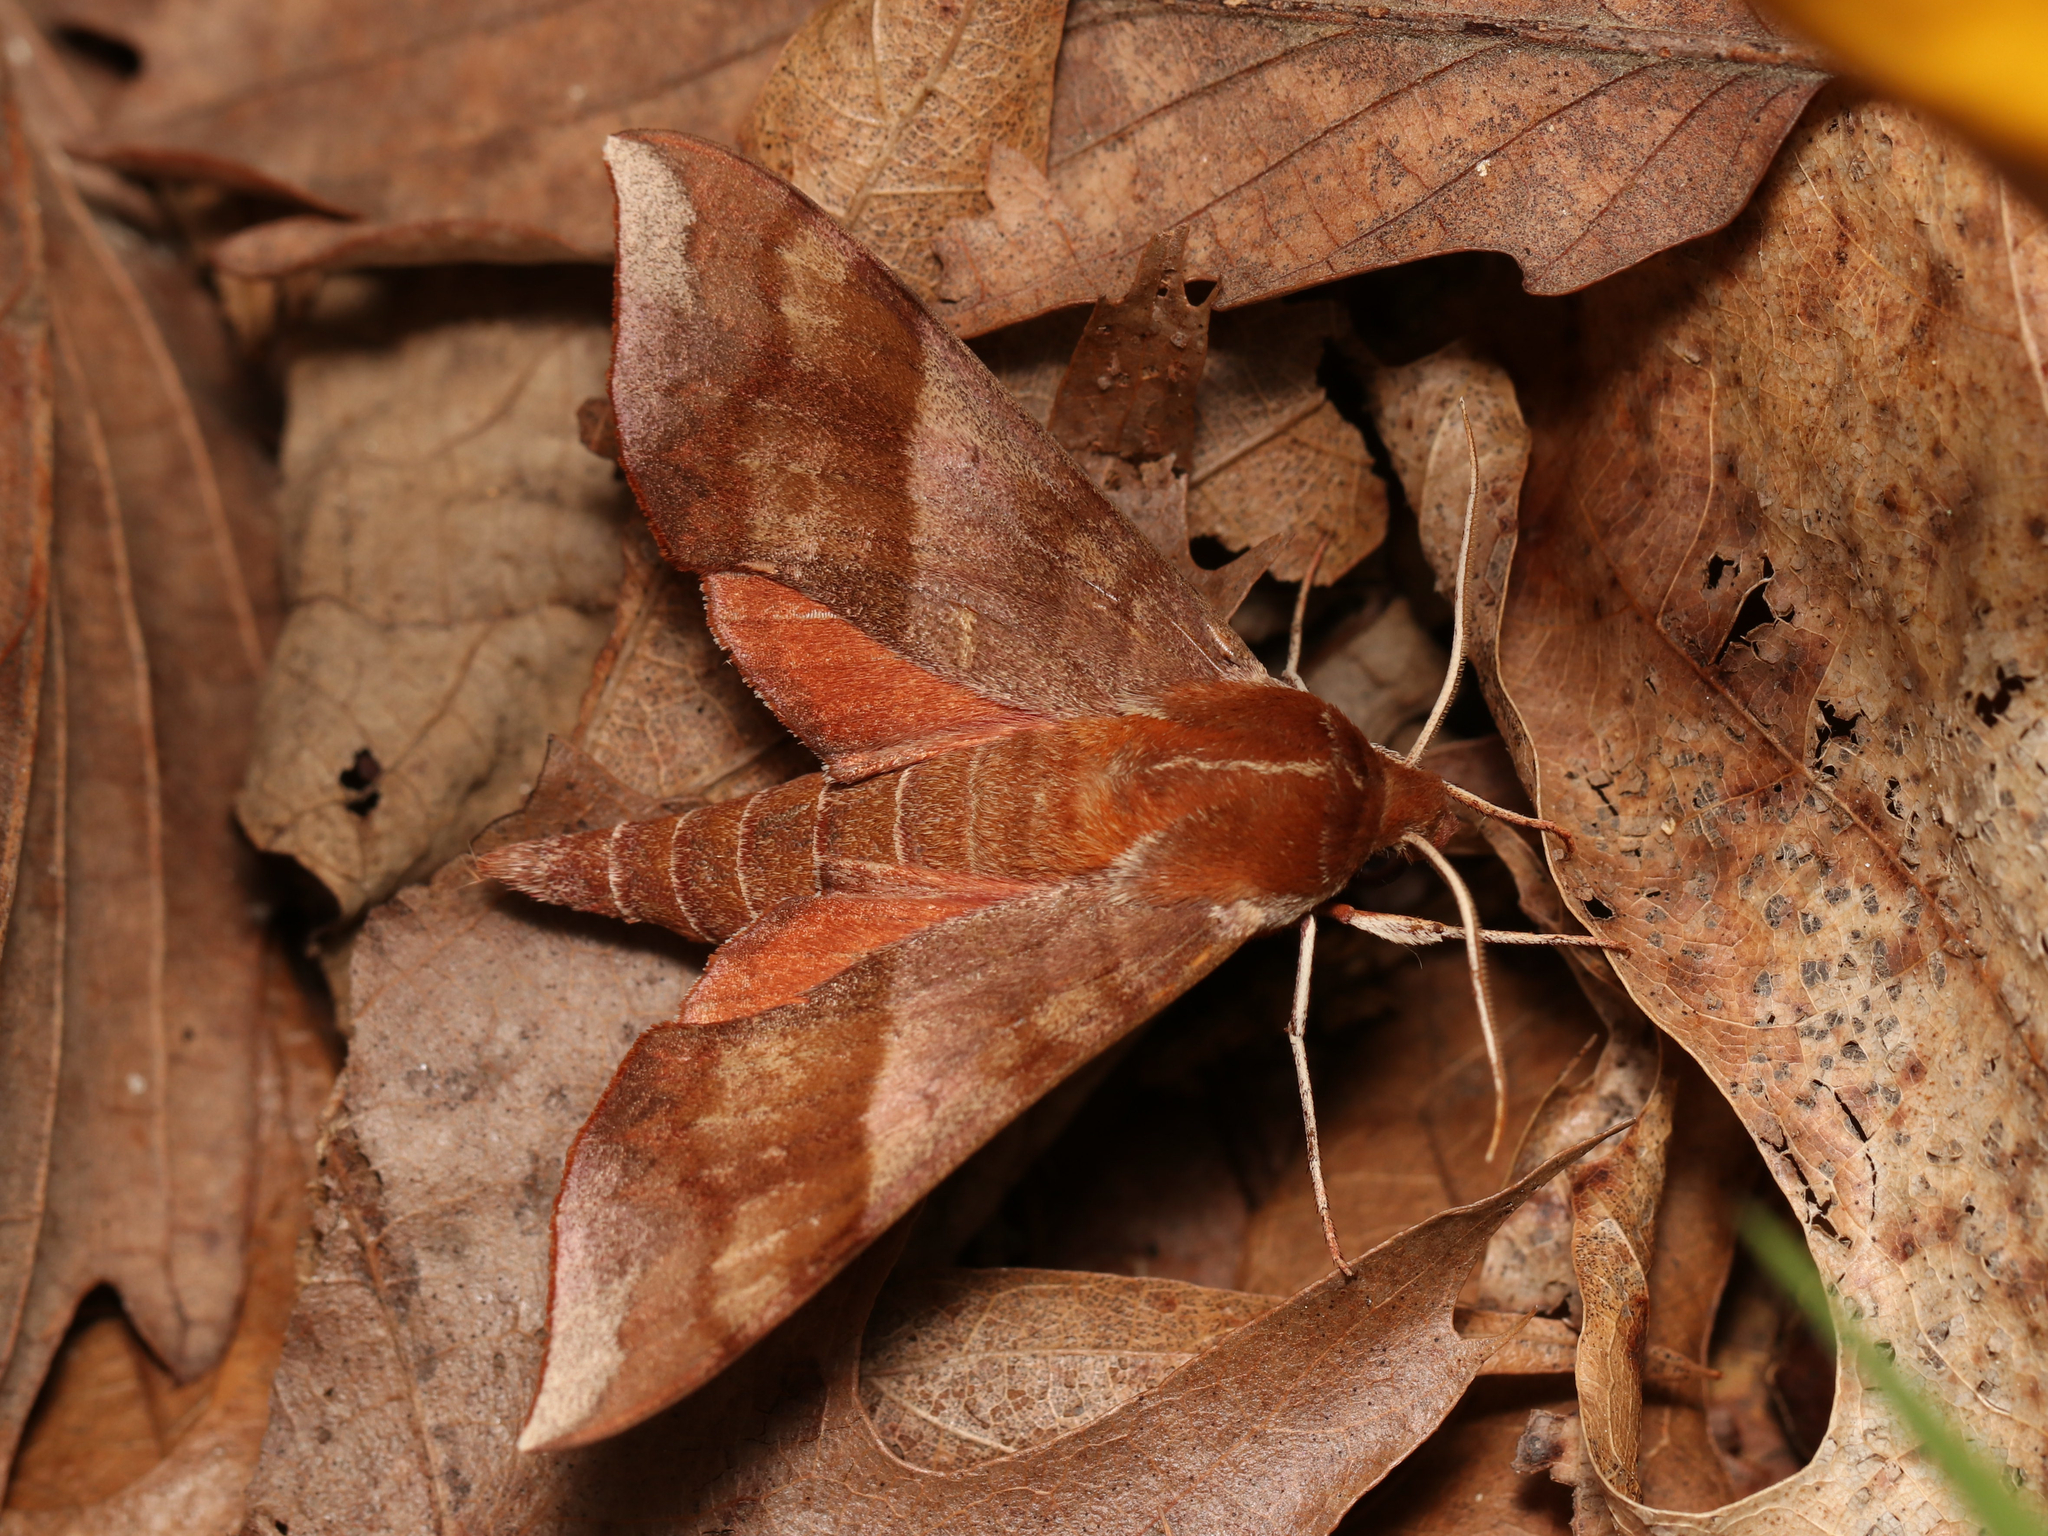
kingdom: Animalia
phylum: Arthropoda
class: Insecta
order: Lepidoptera
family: Sphingidae
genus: Darapsa
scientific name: Darapsa choerilus
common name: Azalea sphinx
